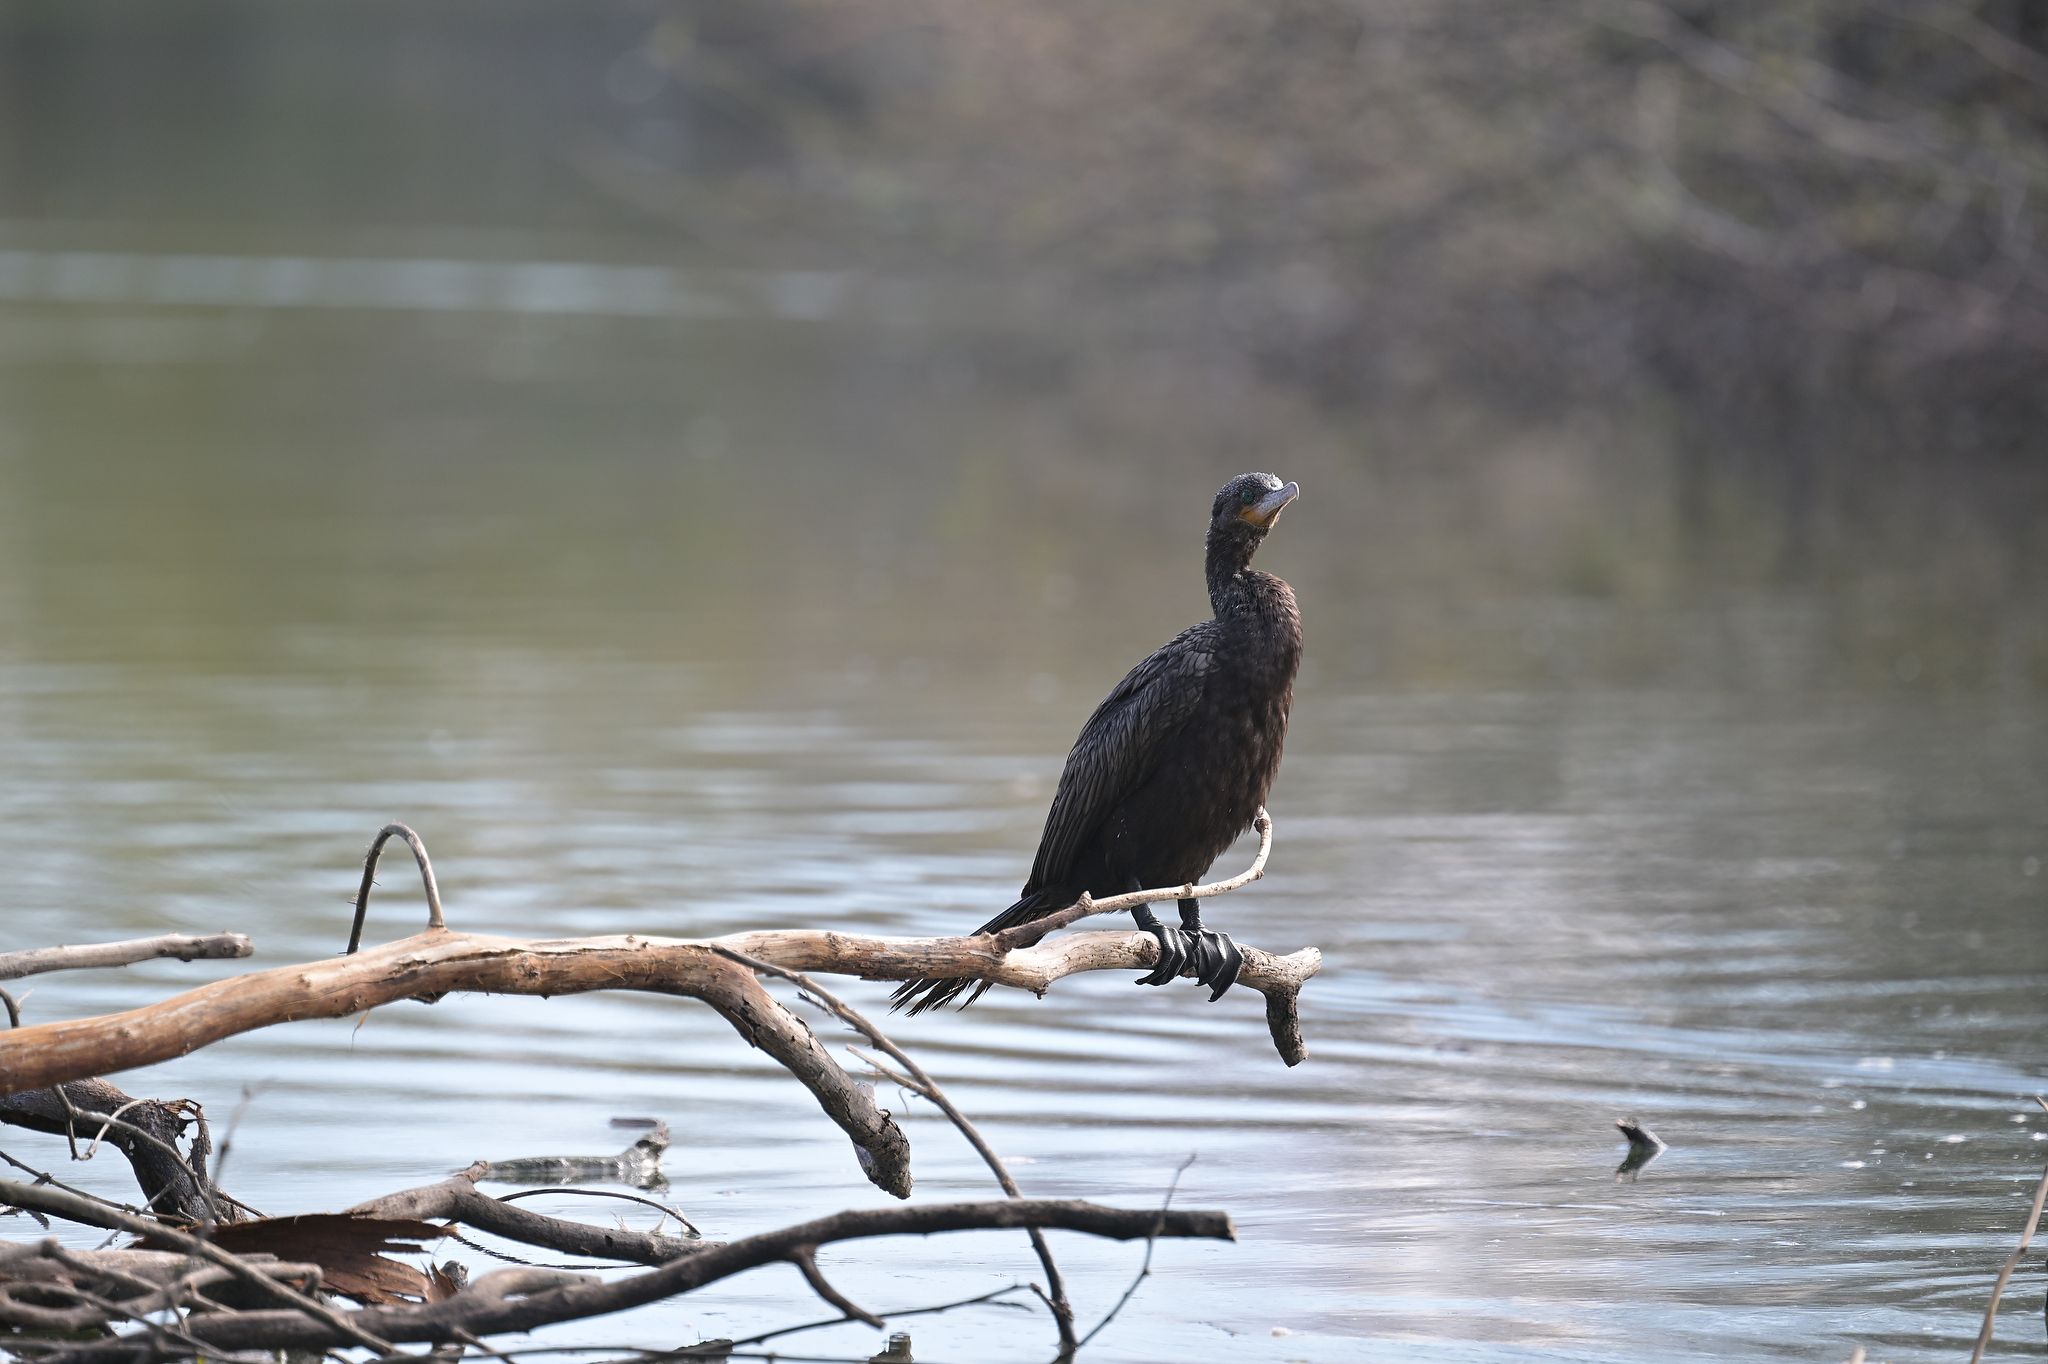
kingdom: Animalia
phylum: Chordata
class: Aves
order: Suliformes
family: Phalacrocoracidae
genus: Phalacrocorax
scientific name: Phalacrocorax brasilianus
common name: Neotropic cormorant
